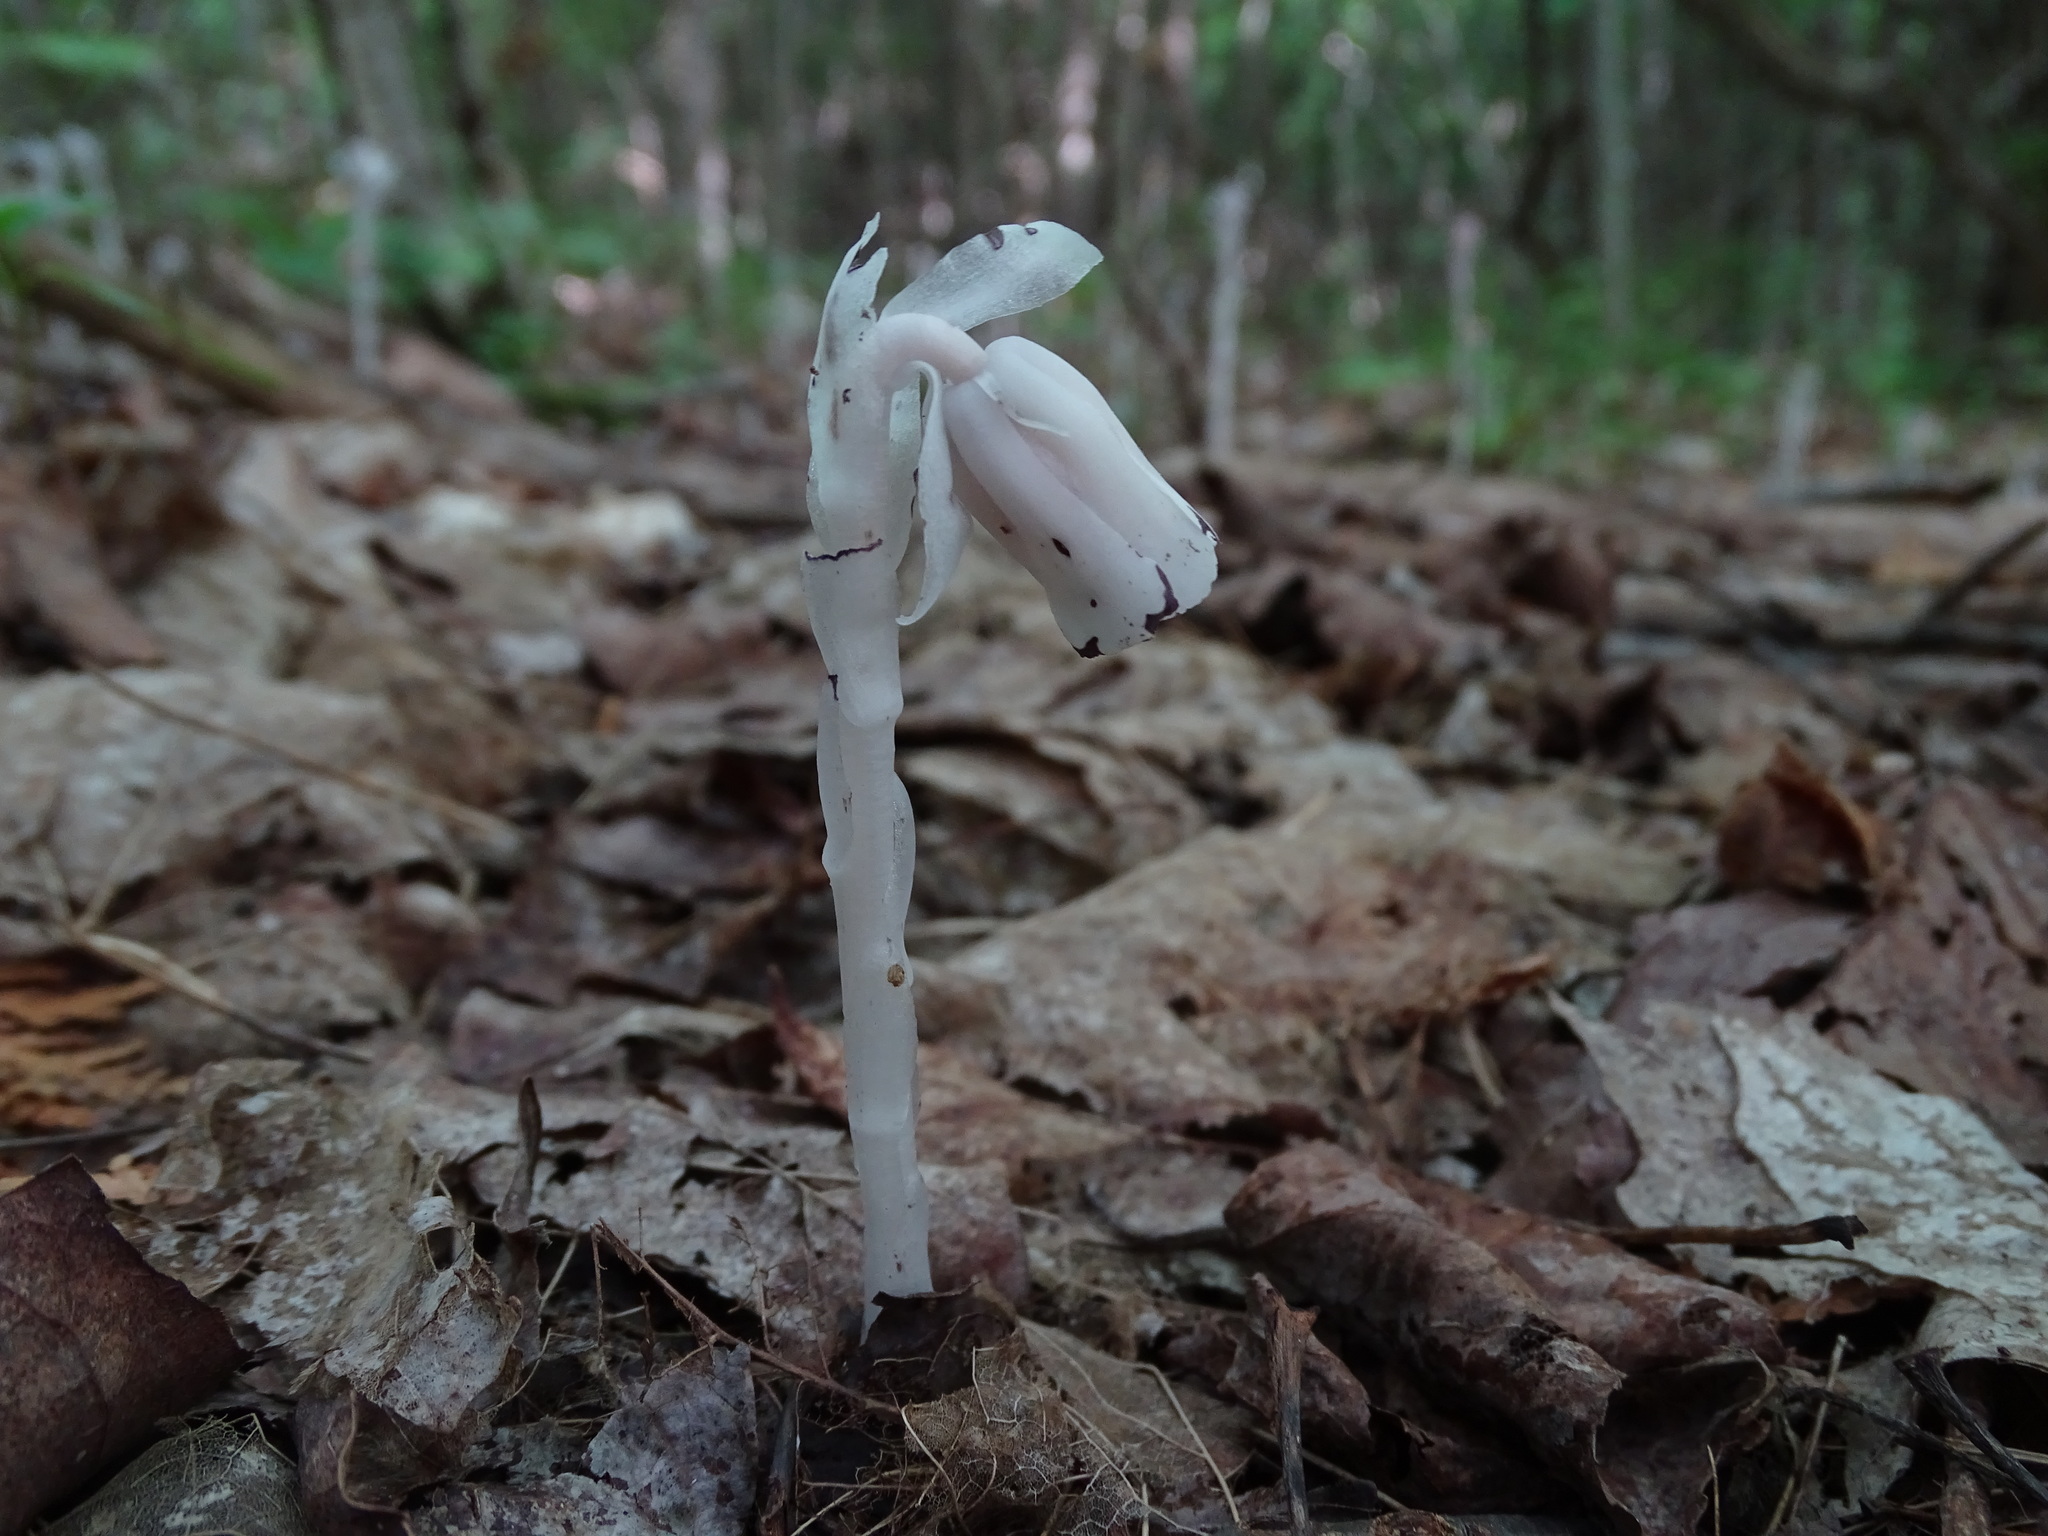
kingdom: Plantae
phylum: Tracheophyta
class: Magnoliopsida
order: Ericales
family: Ericaceae
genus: Monotropa
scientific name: Monotropa uniflora
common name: Convulsion root
